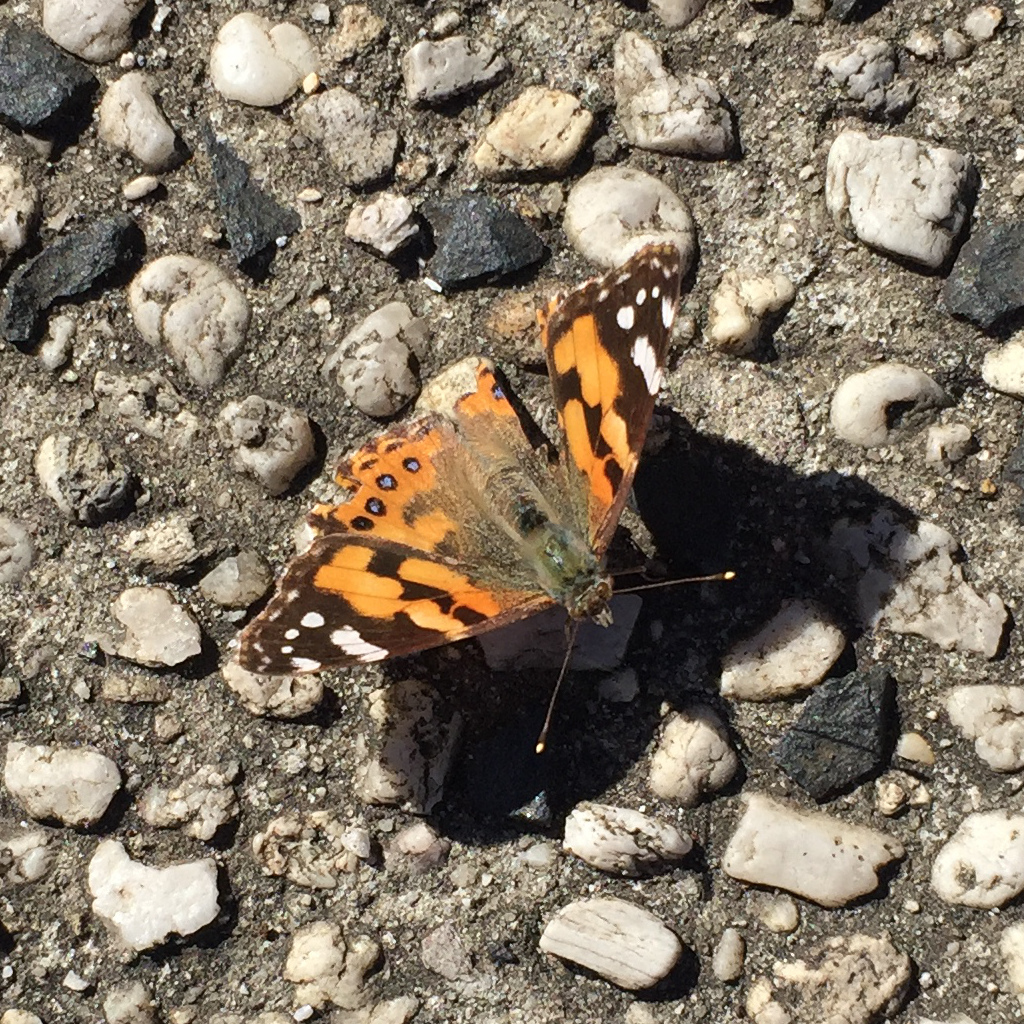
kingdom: Animalia
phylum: Arthropoda
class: Insecta
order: Lepidoptera
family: Nymphalidae
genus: Vanessa
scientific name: Vanessa kershawi
